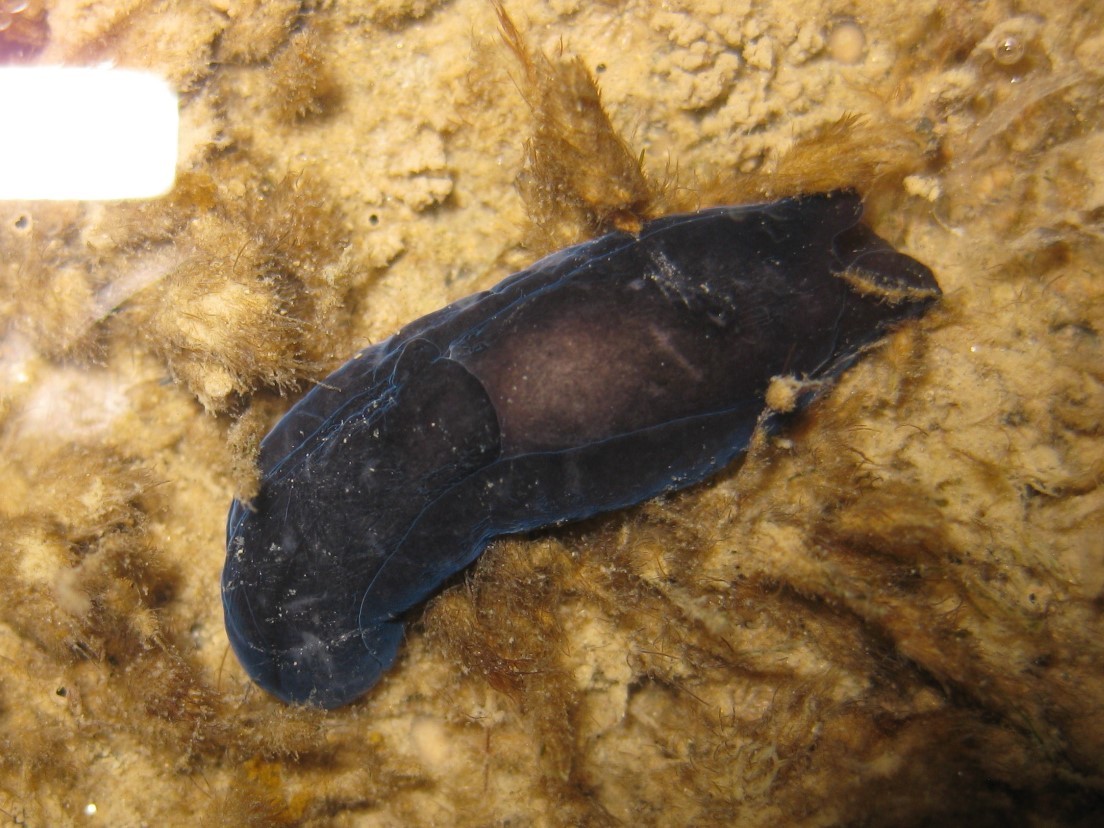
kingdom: Animalia
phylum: Mollusca
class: Gastropoda
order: Cephalaspidea
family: Aglajidae
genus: Melanochlamys
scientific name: Melanochlamys cylindrica
